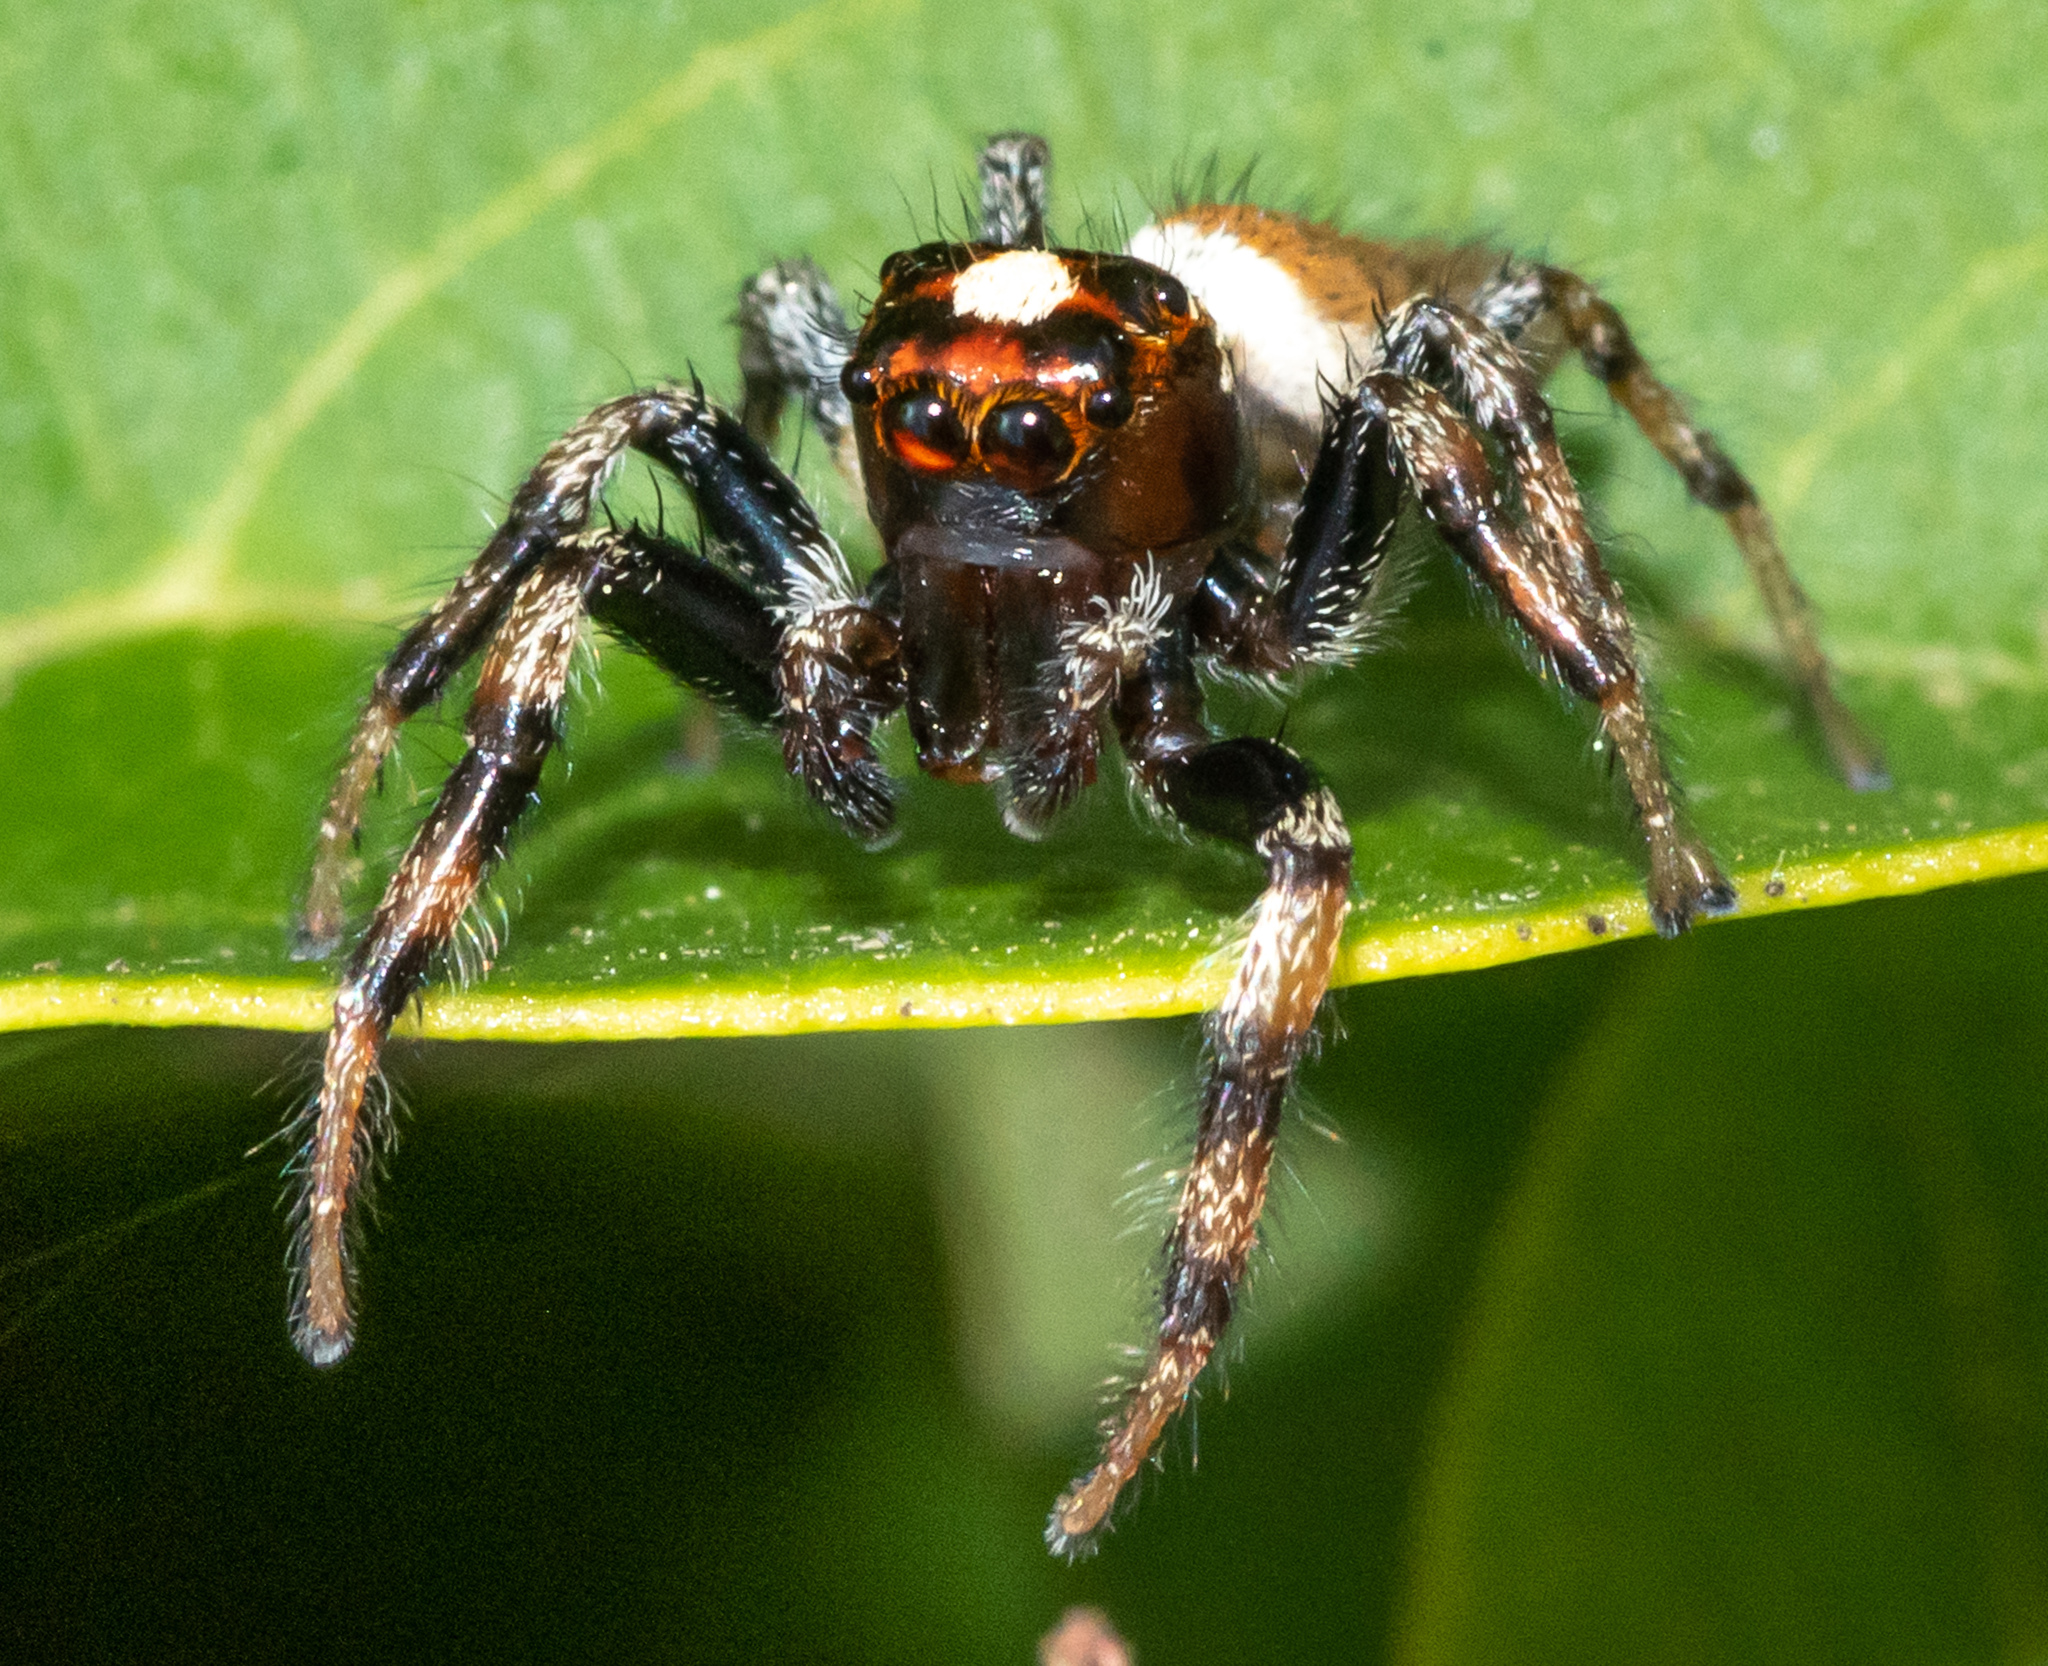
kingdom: Animalia
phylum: Arthropoda
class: Arachnida
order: Araneae
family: Salticidae
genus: Colonus
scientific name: Colonus hesperus
